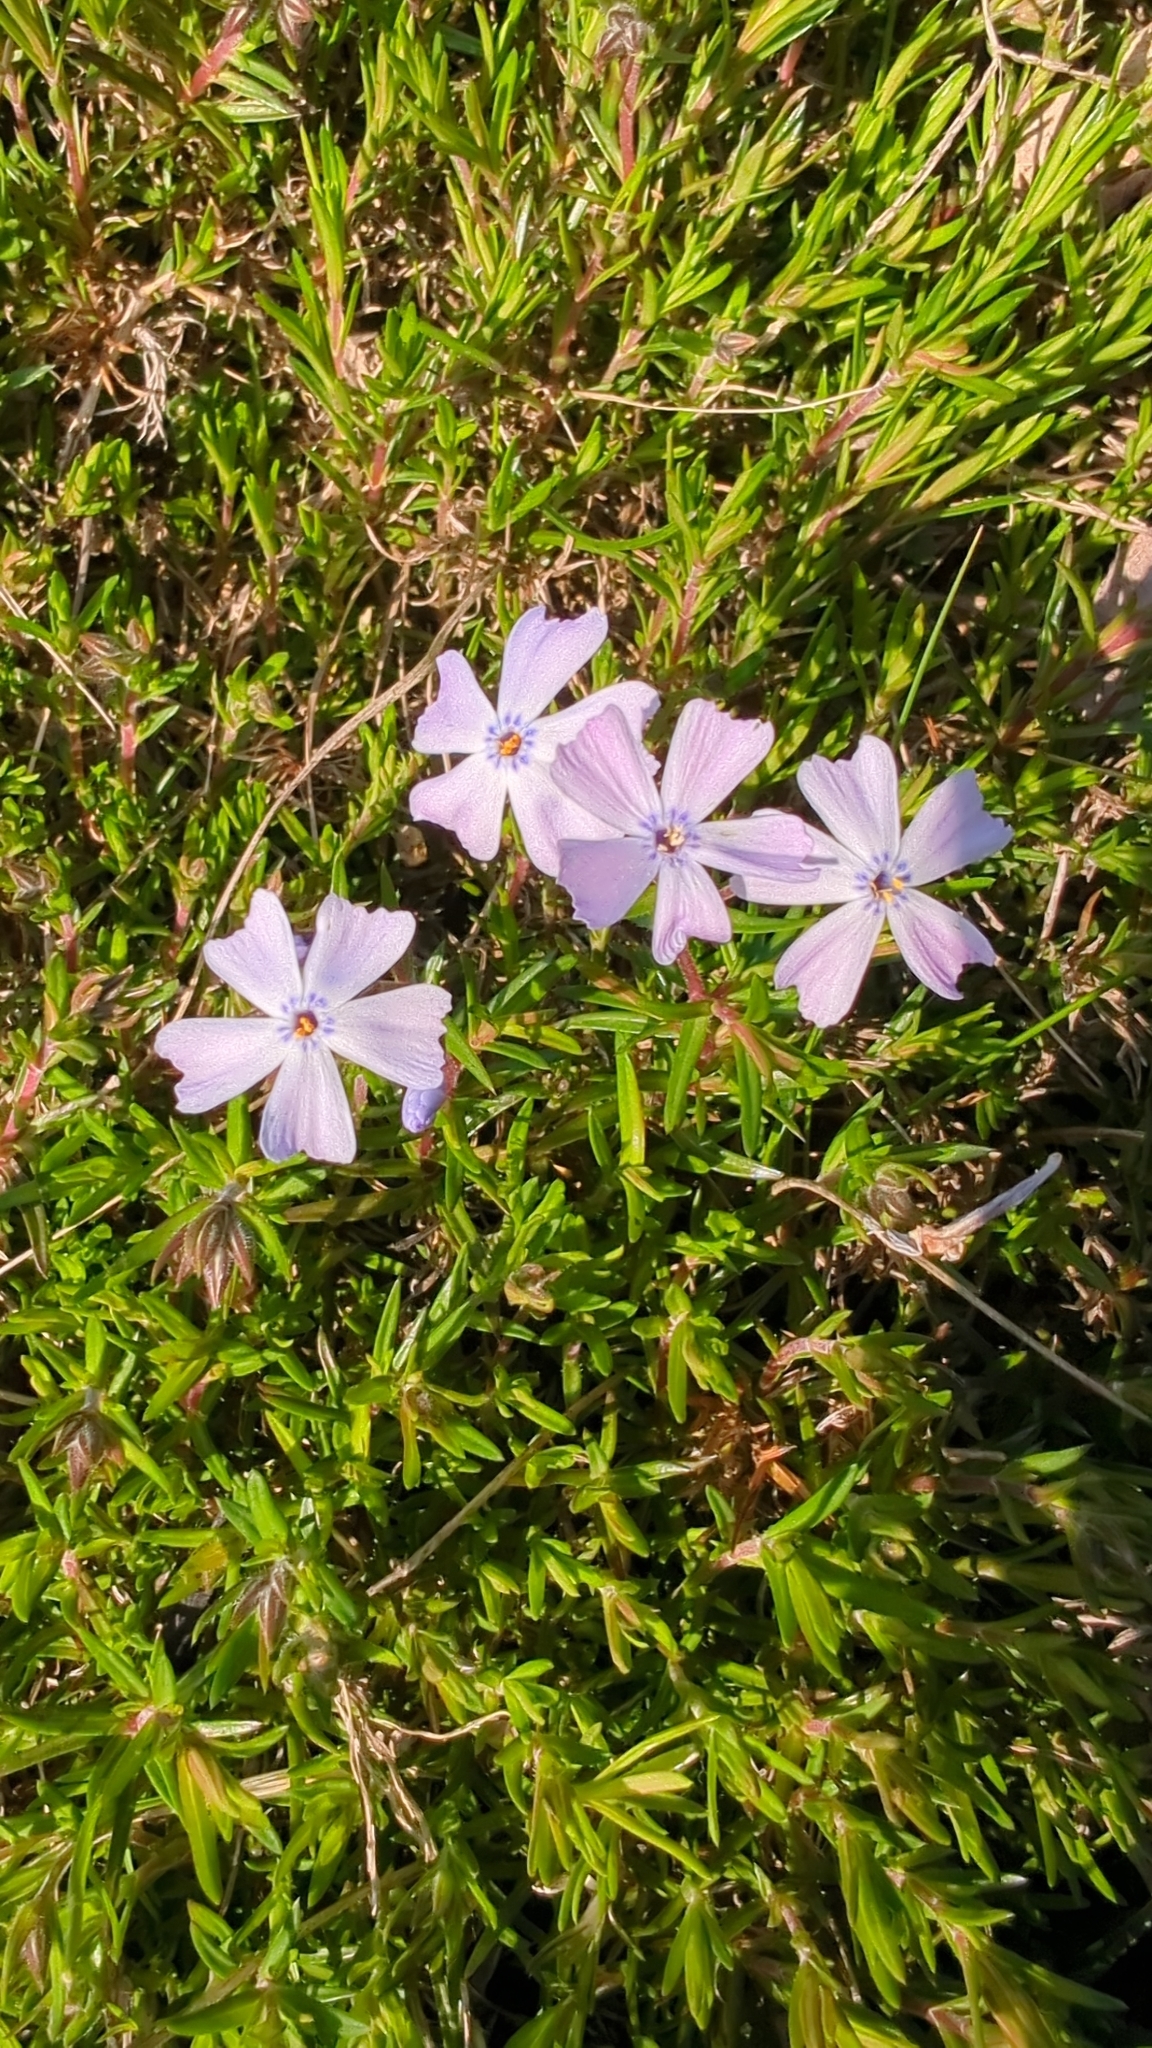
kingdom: Plantae
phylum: Tracheophyta
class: Magnoliopsida
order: Ericales
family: Polemoniaceae
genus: Phlox
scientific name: Phlox subulata
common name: Moss phlox
